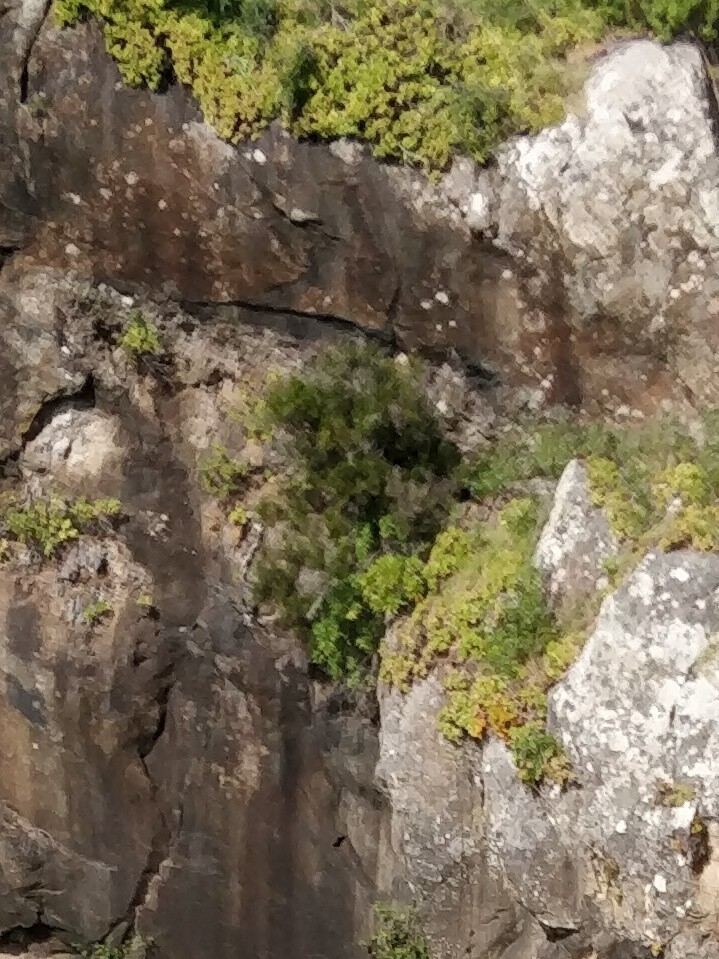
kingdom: Plantae
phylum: Tracheophyta
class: Magnoliopsida
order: Ericales
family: Ericaceae
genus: Erica
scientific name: Erica platycodon
